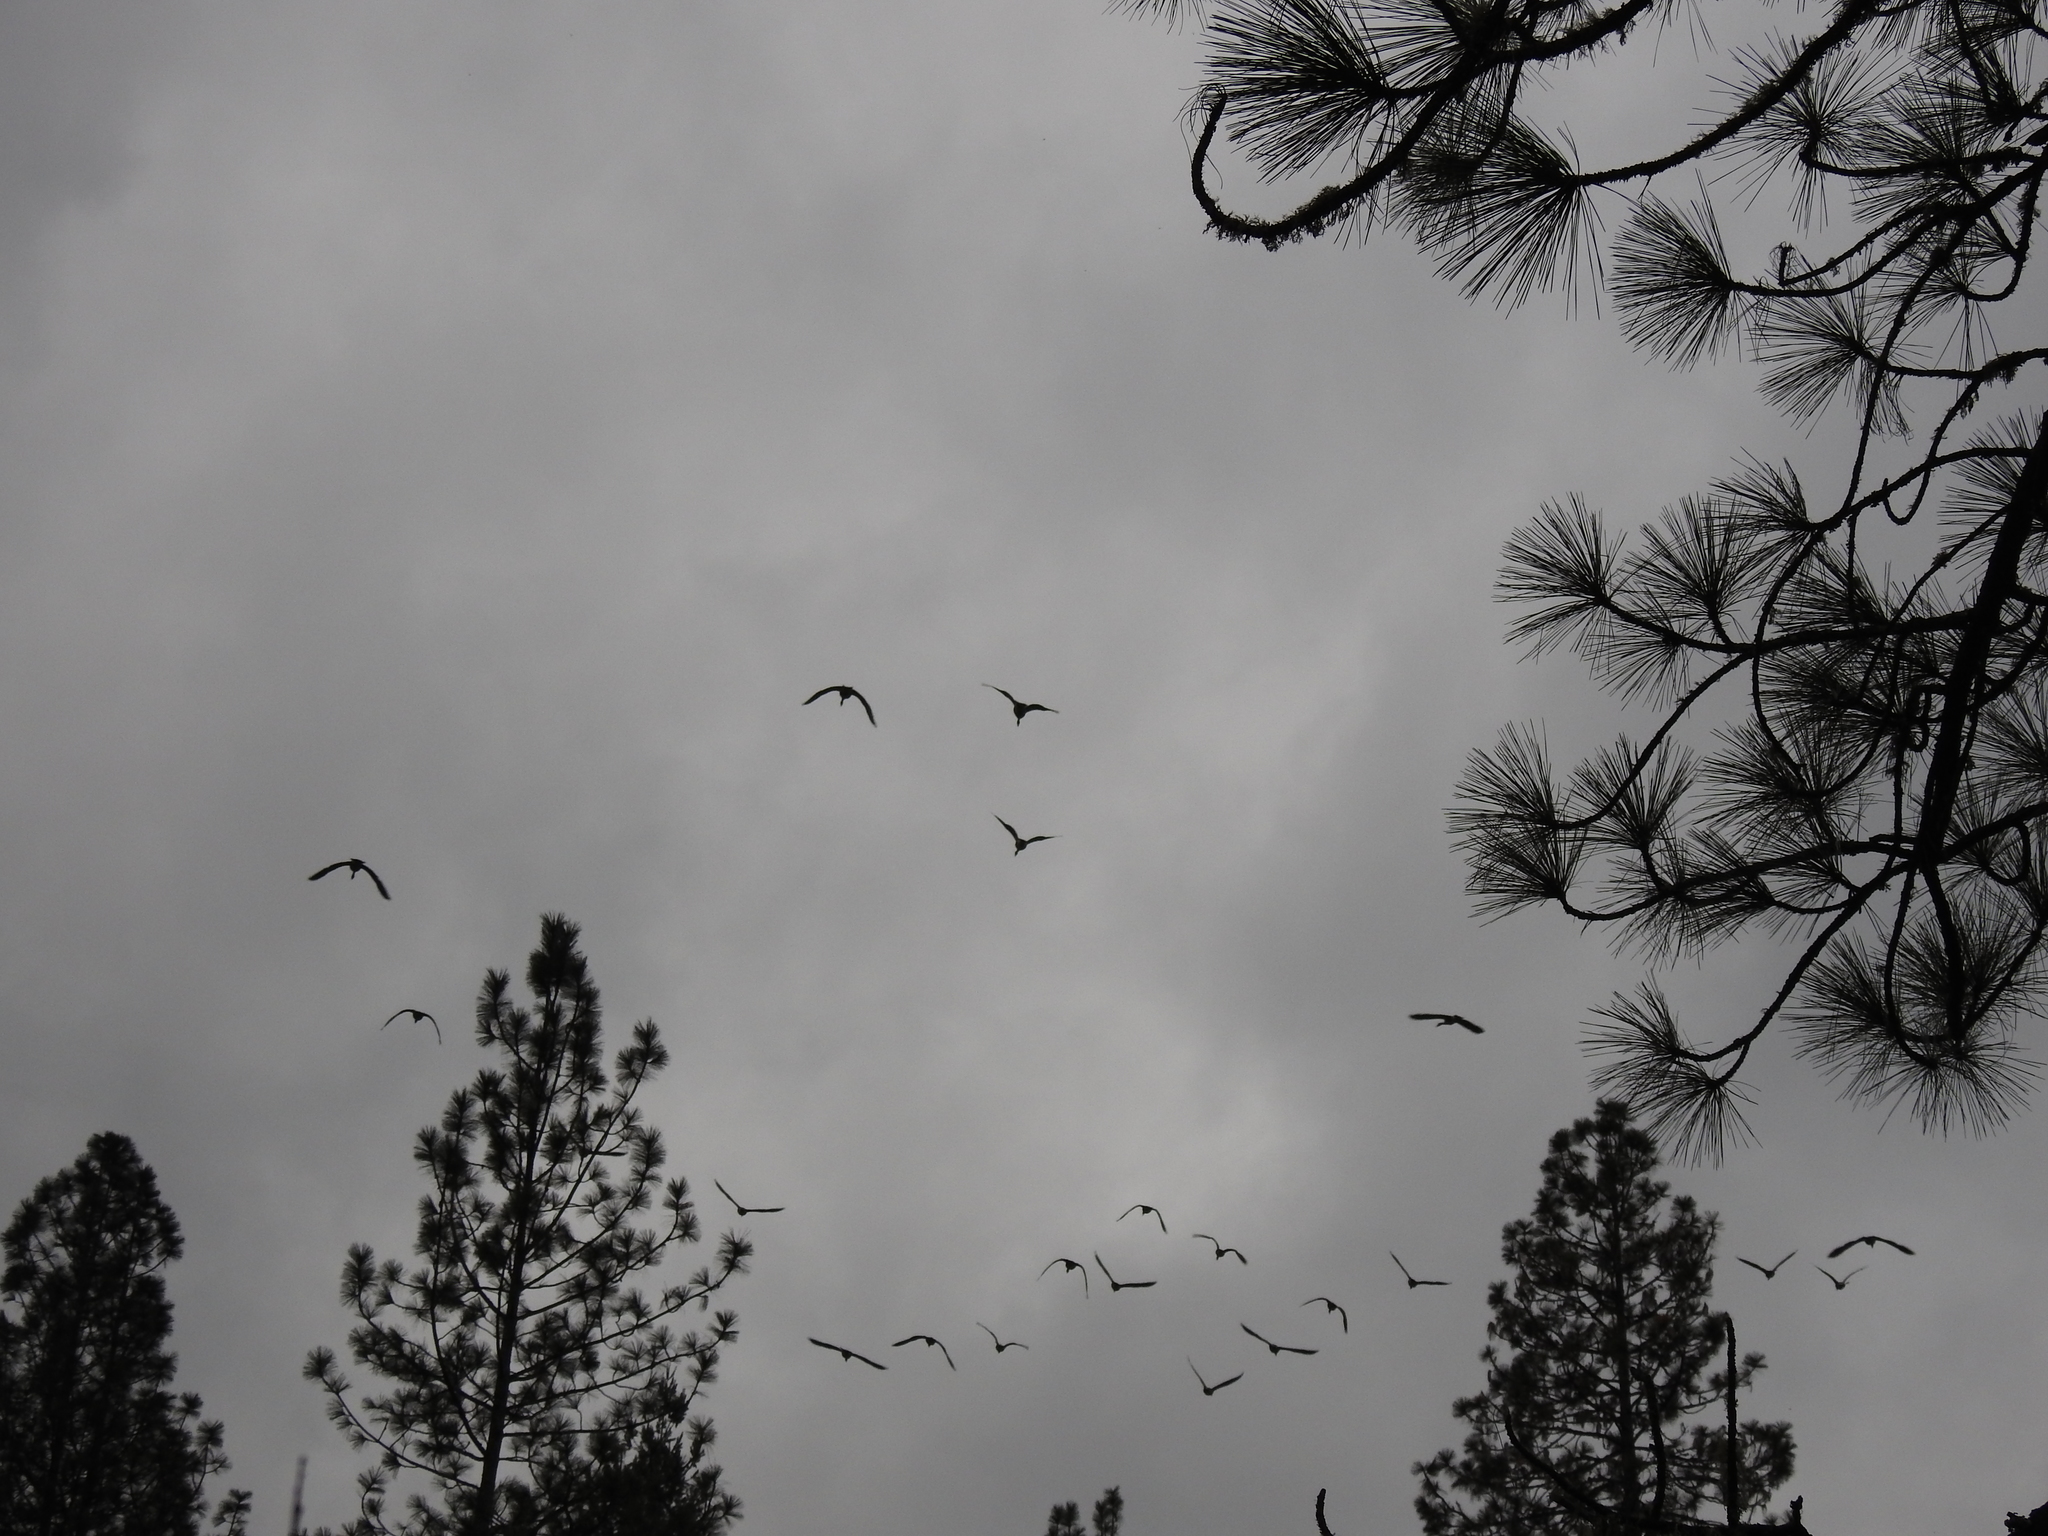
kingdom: Animalia
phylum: Chordata
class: Aves
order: Gruiformes
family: Gruidae
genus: Grus
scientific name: Grus canadensis
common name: Sandhill crane
